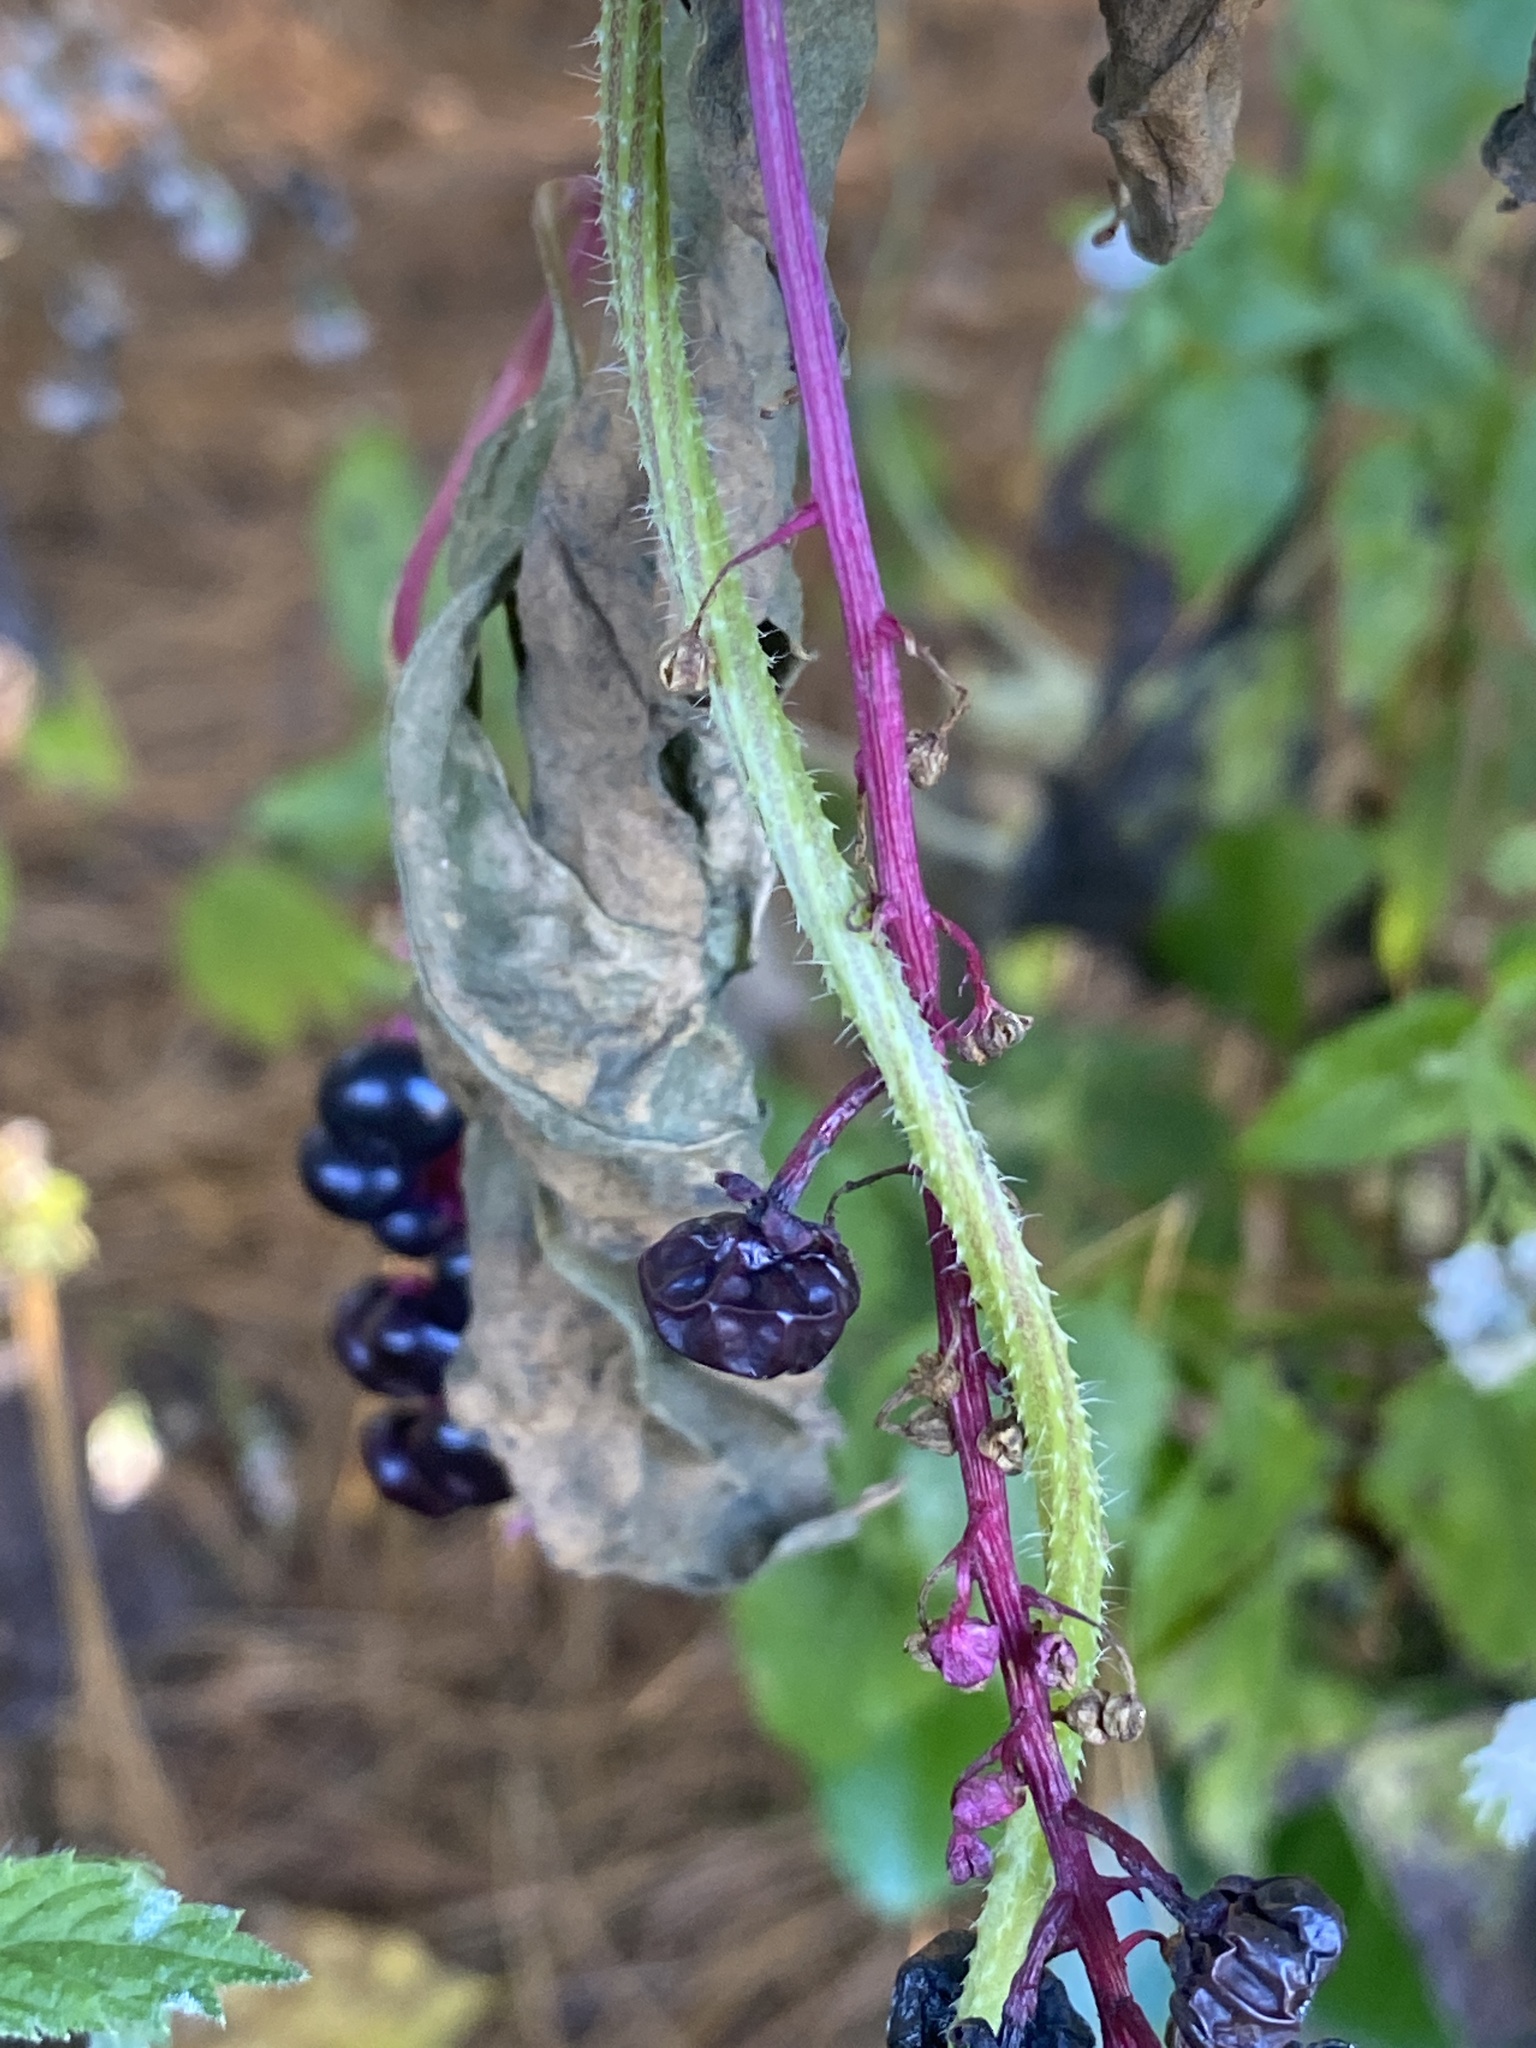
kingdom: Plantae
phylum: Tracheophyta
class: Magnoliopsida
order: Caryophyllales
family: Phytolaccaceae
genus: Phytolacca
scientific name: Phytolacca americana
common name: American pokeweed
